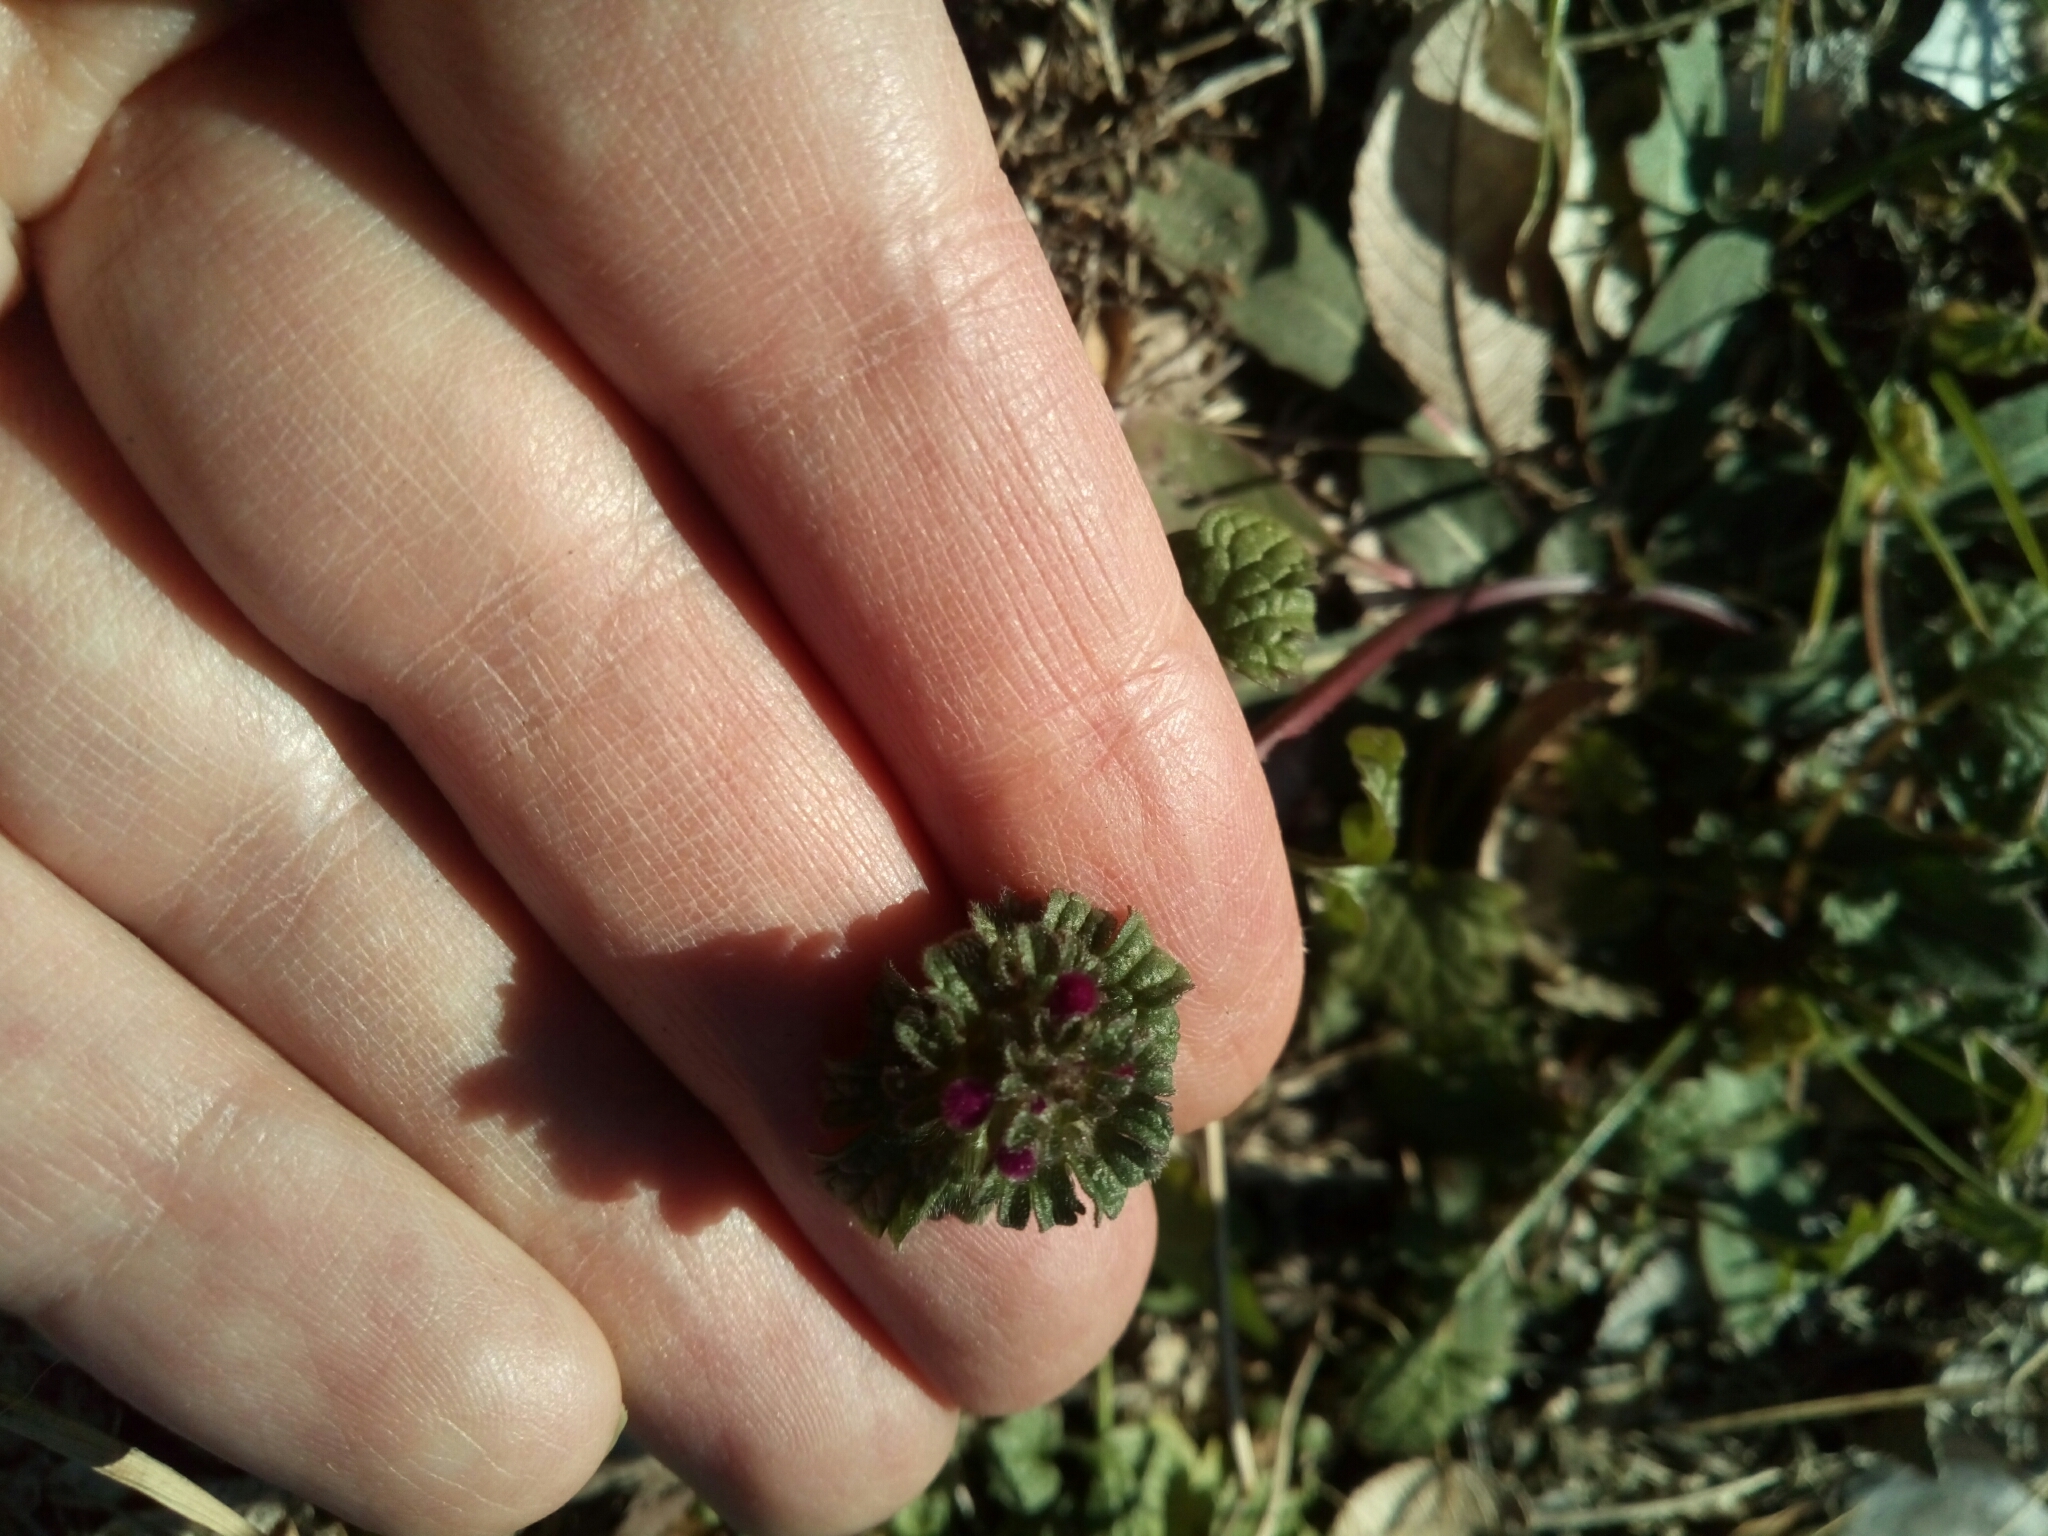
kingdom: Plantae
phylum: Tracheophyta
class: Magnoliopsida
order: Lamiales
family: Lamiaceae
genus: Lamium
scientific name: Lamium amplexicaule
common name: Henbit dead-nettle
